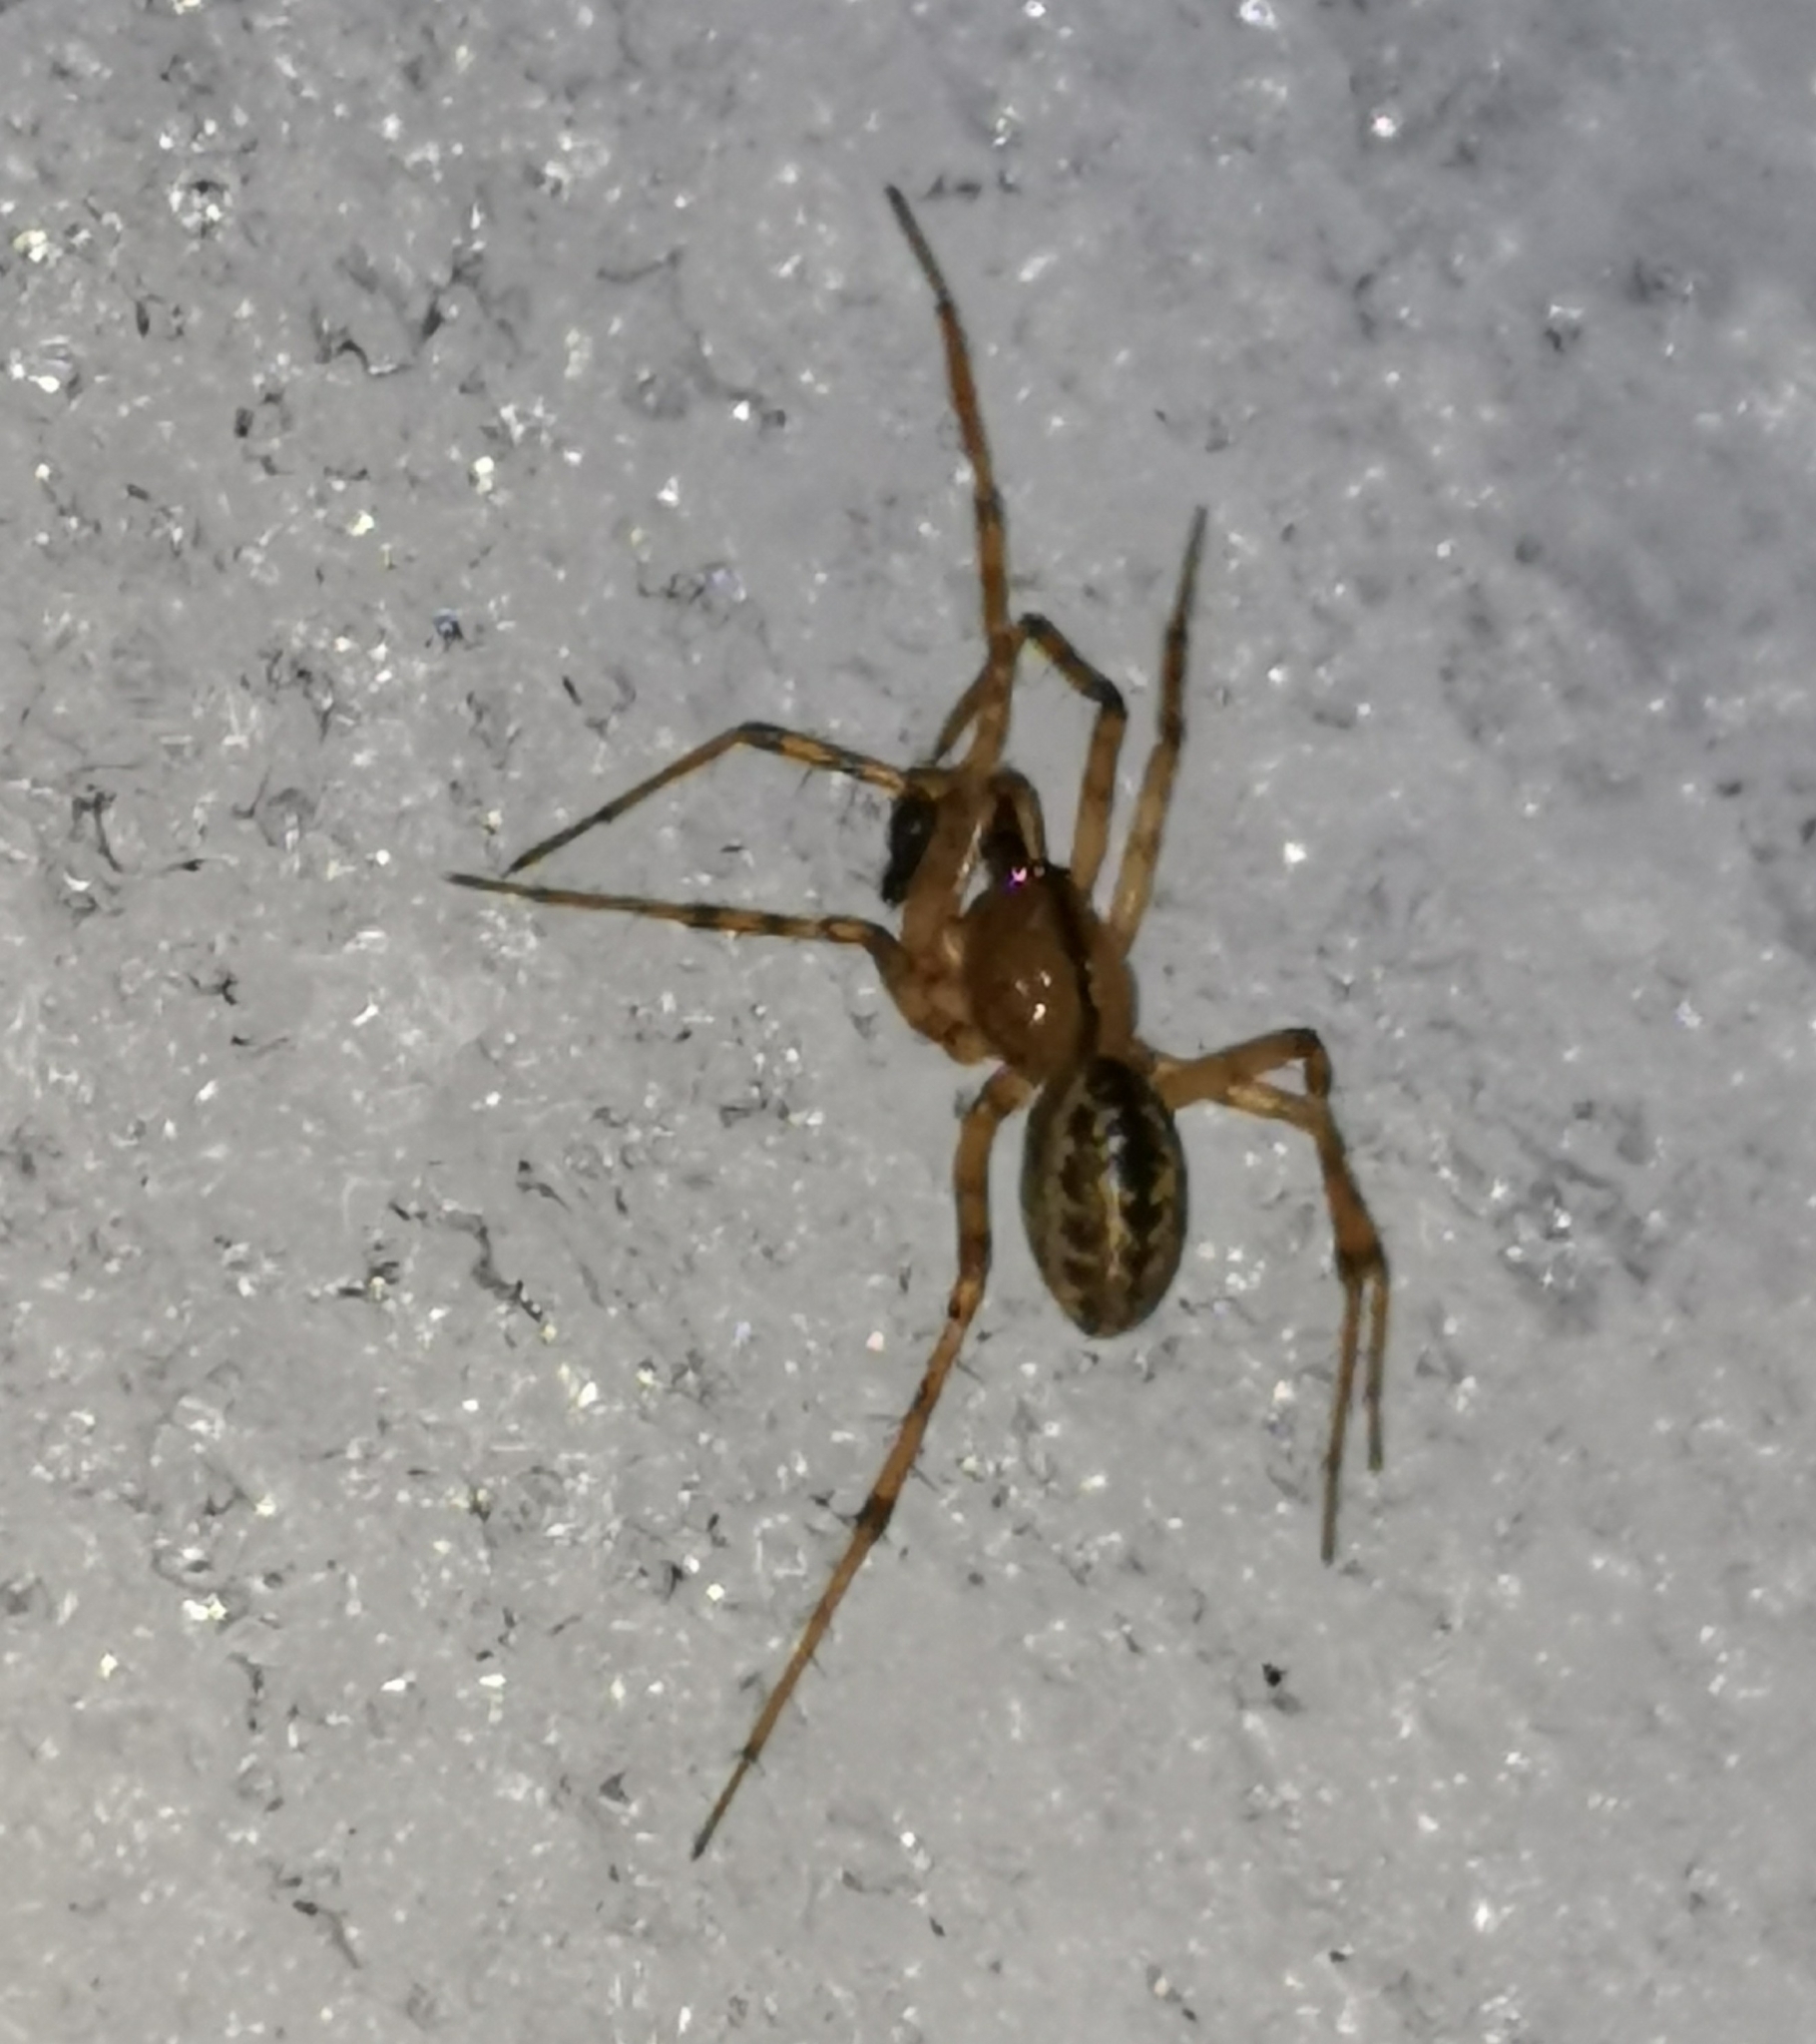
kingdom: Animalia
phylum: Arthropoda
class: Arachnida
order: Araneae
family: Linyphiidae
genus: Stemonyphantes
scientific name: Stemonyphantes lineatus
